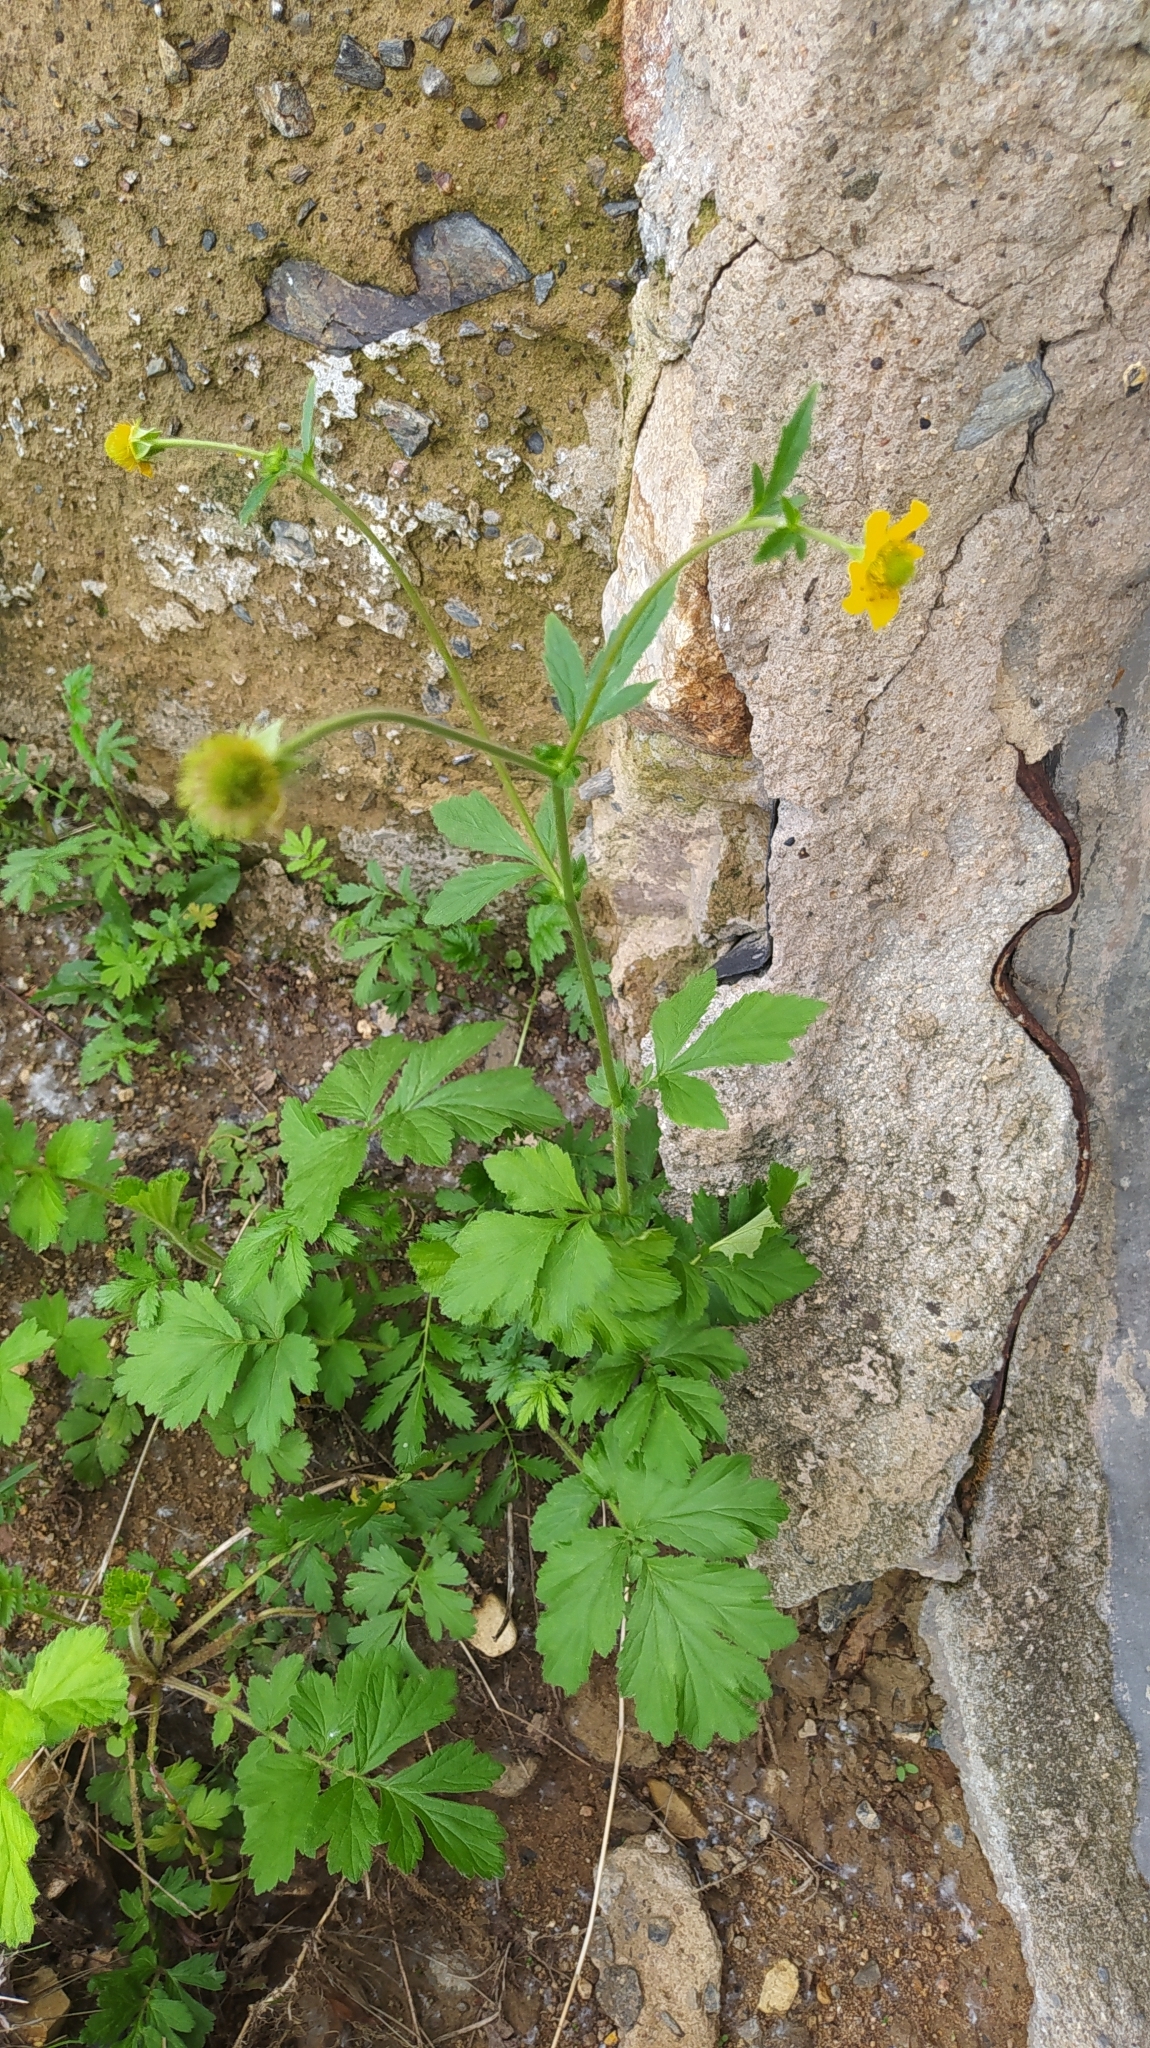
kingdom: Plantae
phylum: Tracheophyta
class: Magnoliopsida
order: Rosales
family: Rosaceae
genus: Geum
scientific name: Geum aleppicum
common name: Yellow avens
